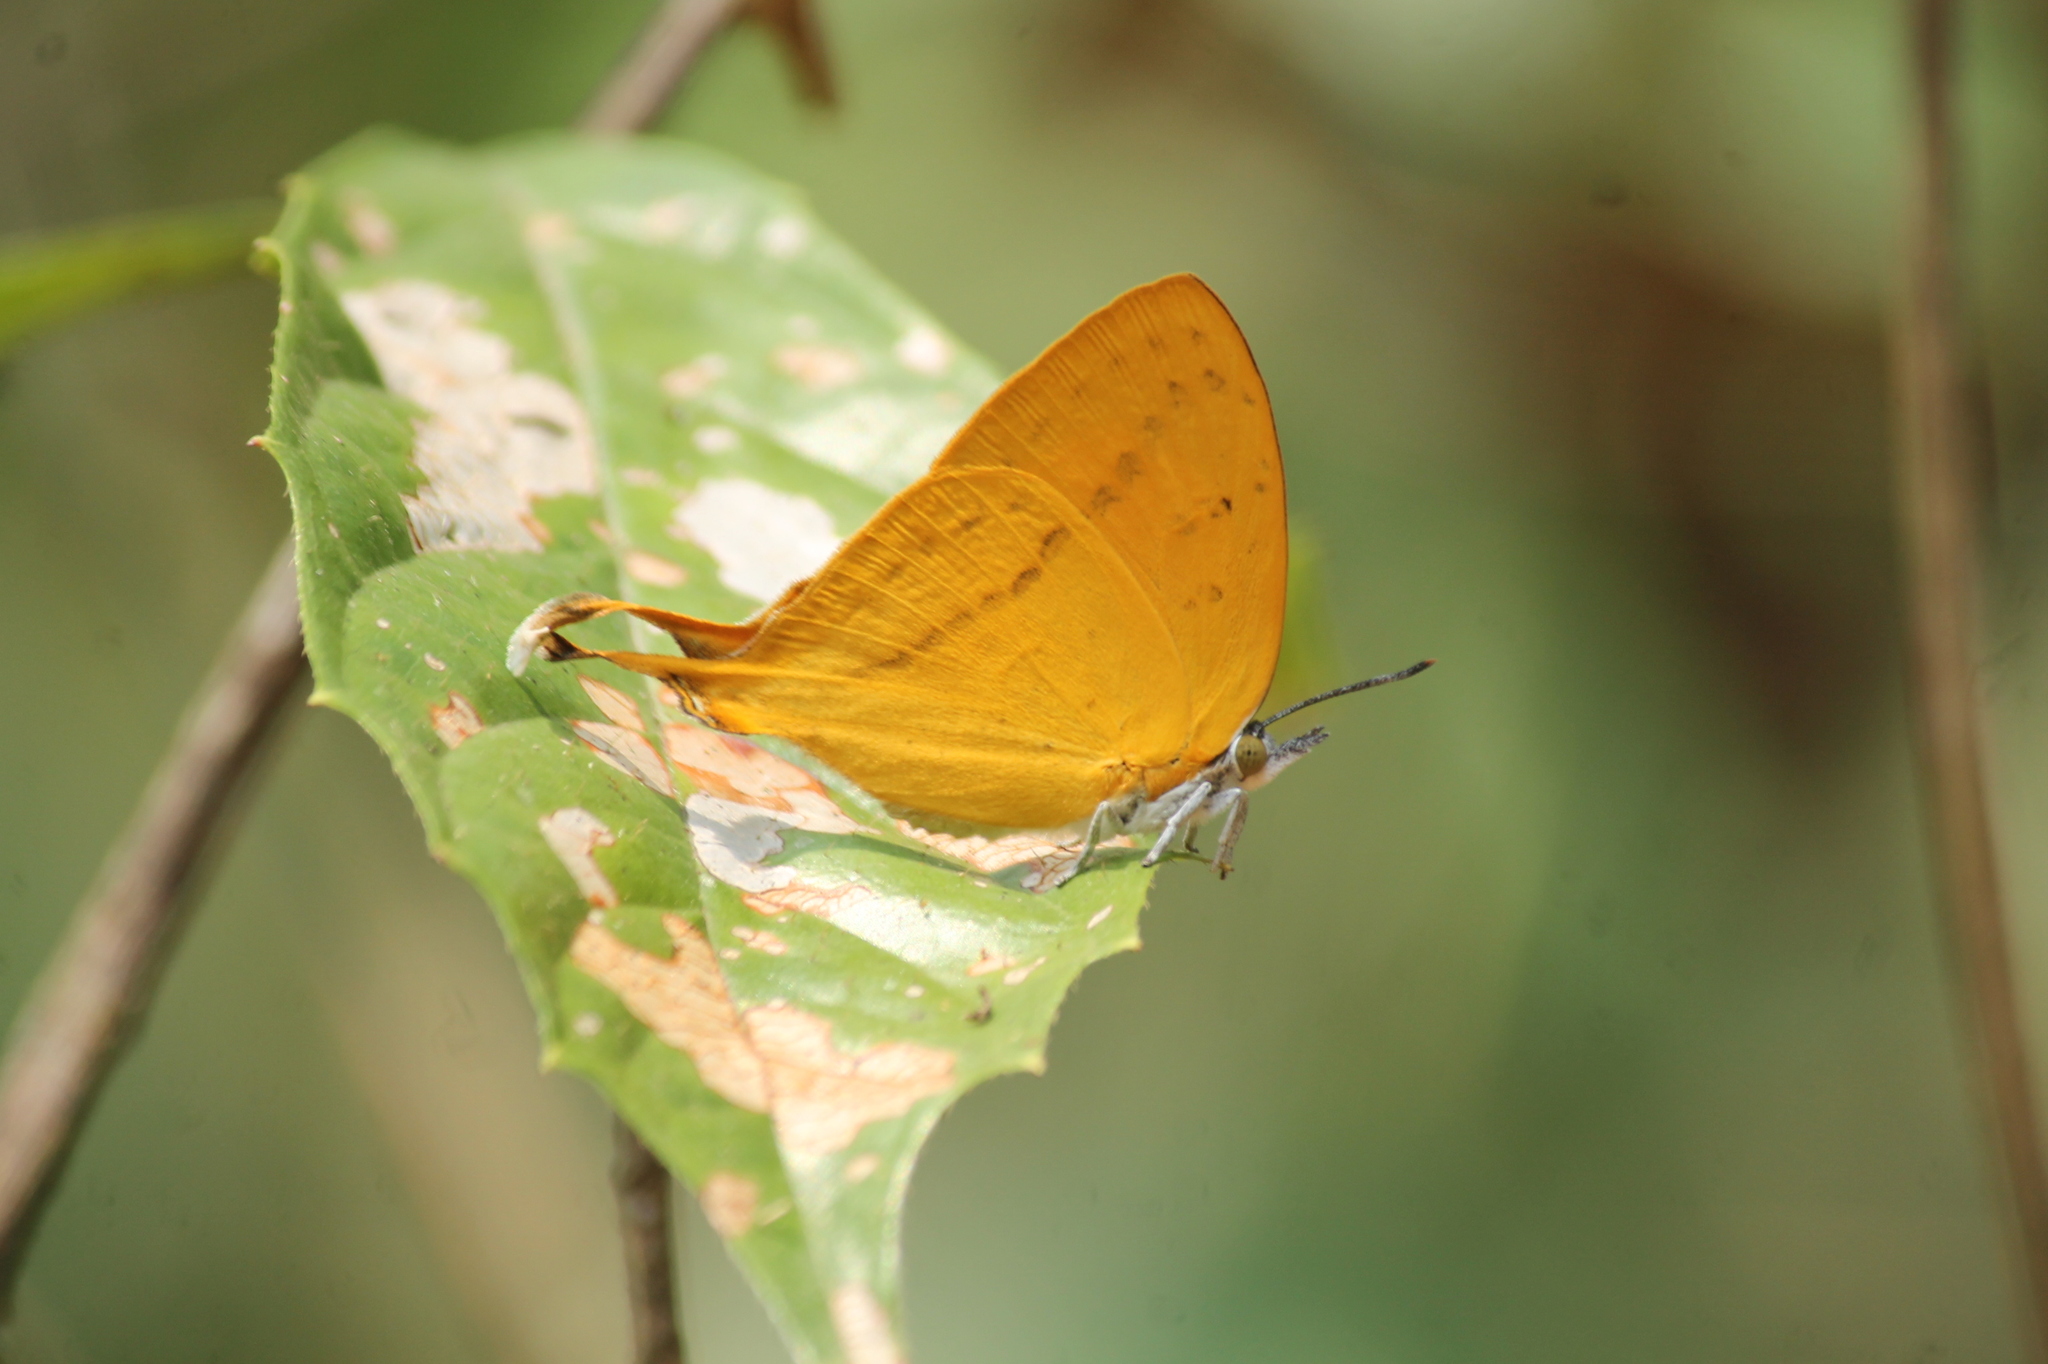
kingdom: Animalia
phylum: Arthropoda
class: Insecta
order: Lepidoptera
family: Lycaenidae
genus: Loxura
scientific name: Loxura atymnus
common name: Common yamfly
